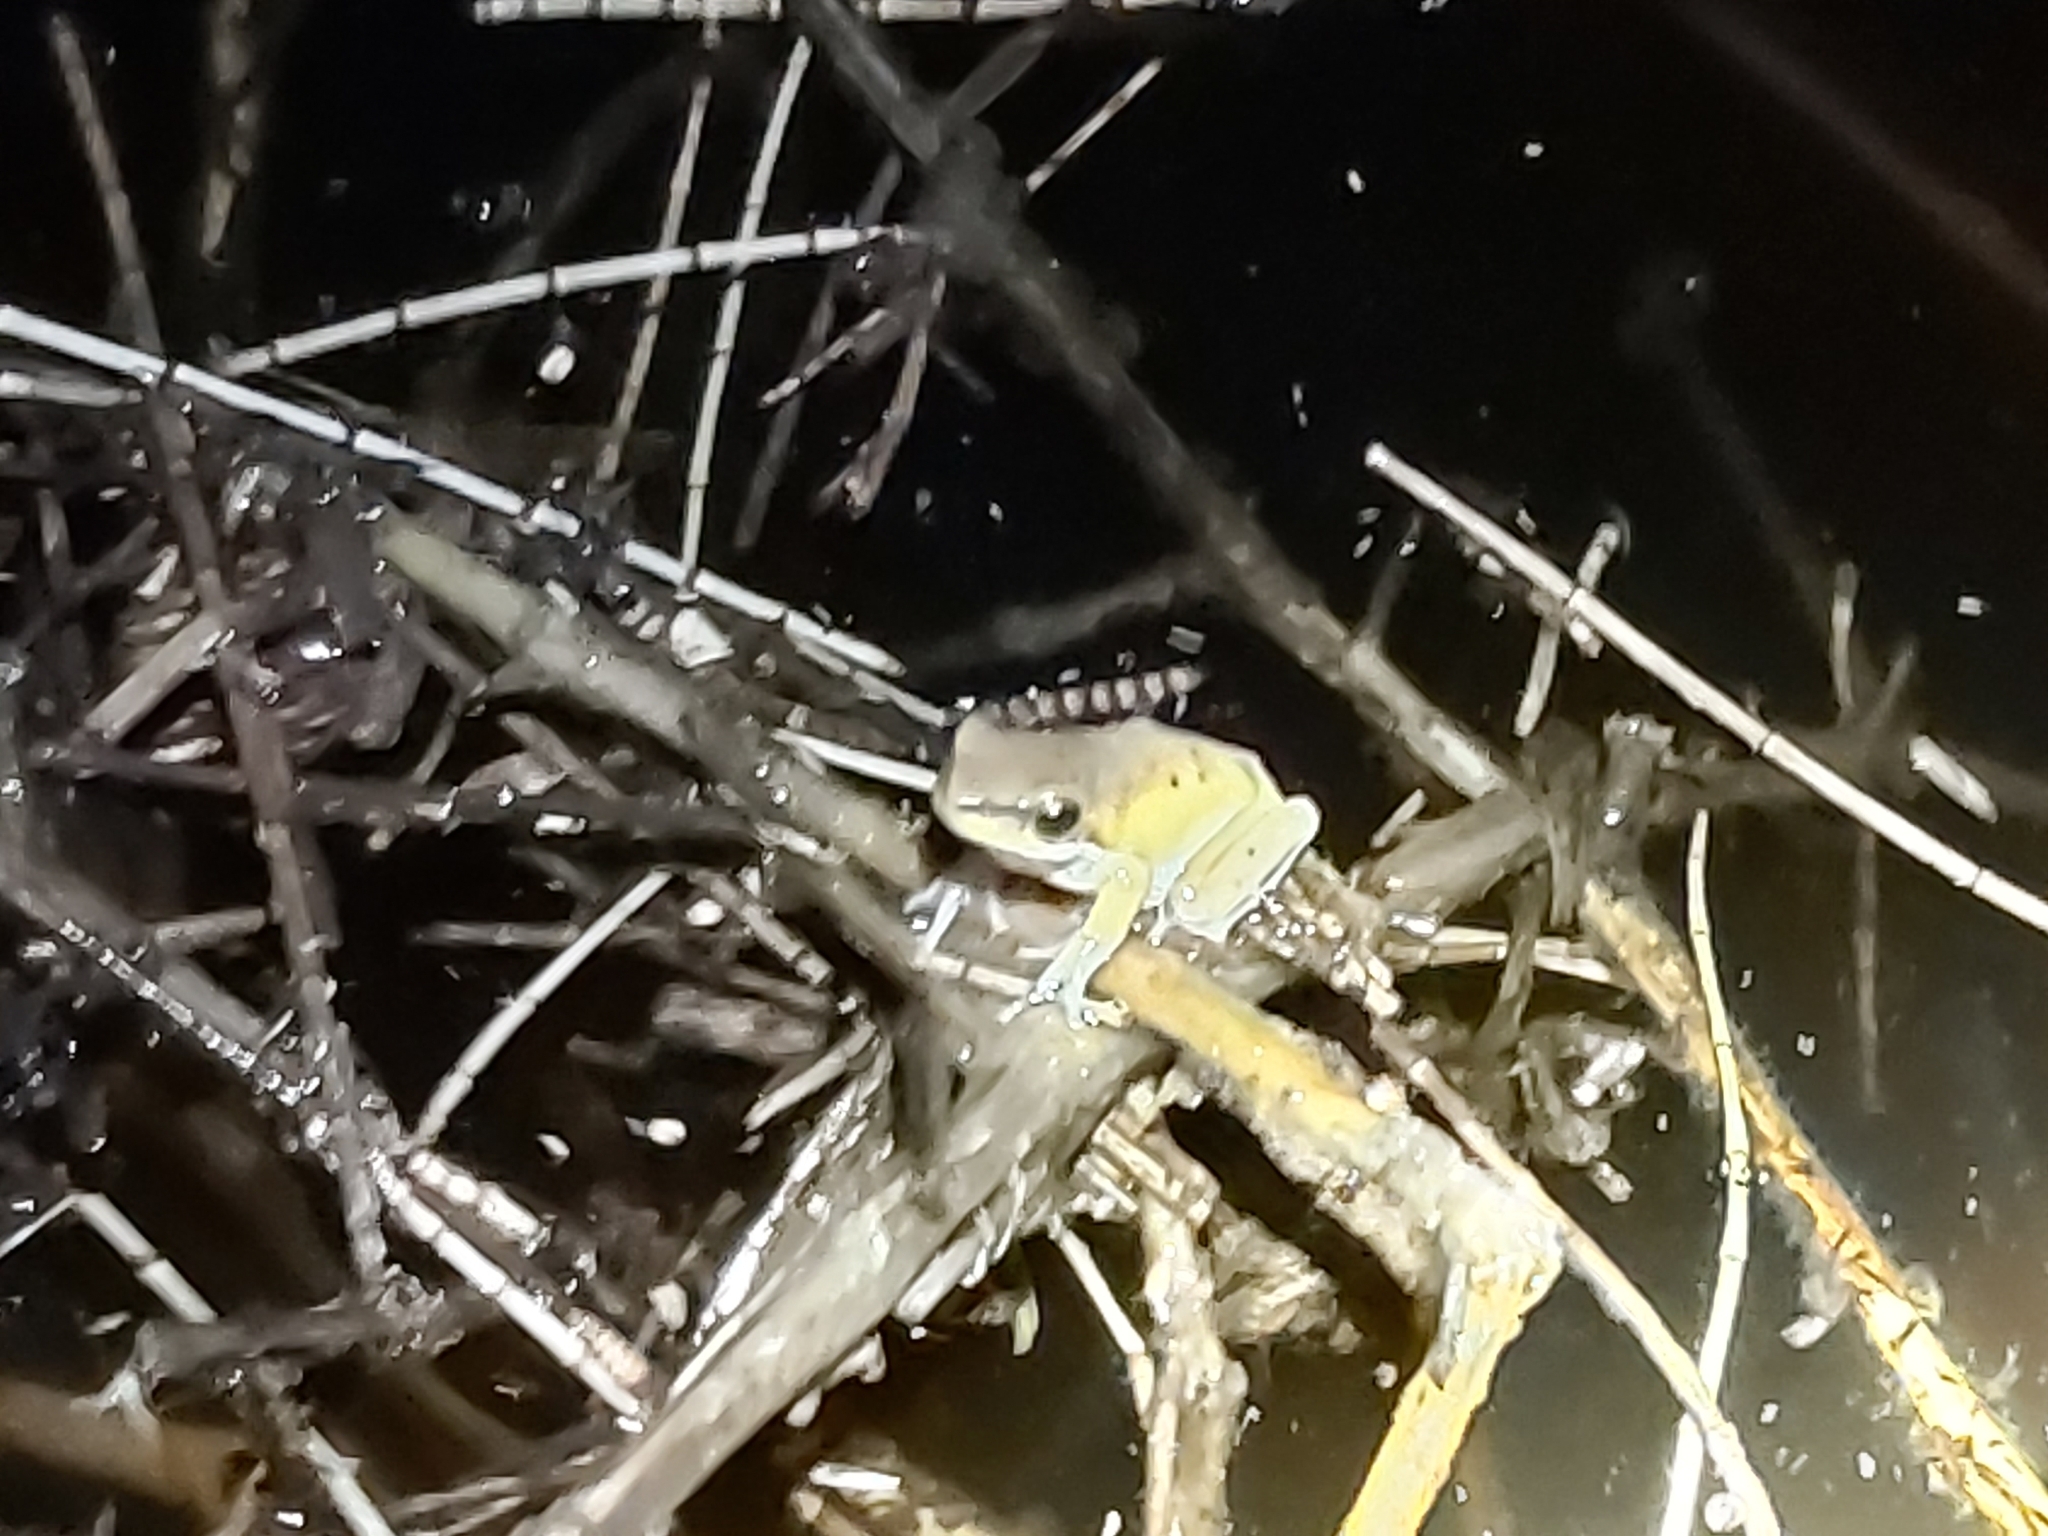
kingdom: Animalia
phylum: Chordata
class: Amphibia
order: Anura
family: Pelodryadidae
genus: Litoria
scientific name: Litoria fallax
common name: Eastern dwarf treefrog
